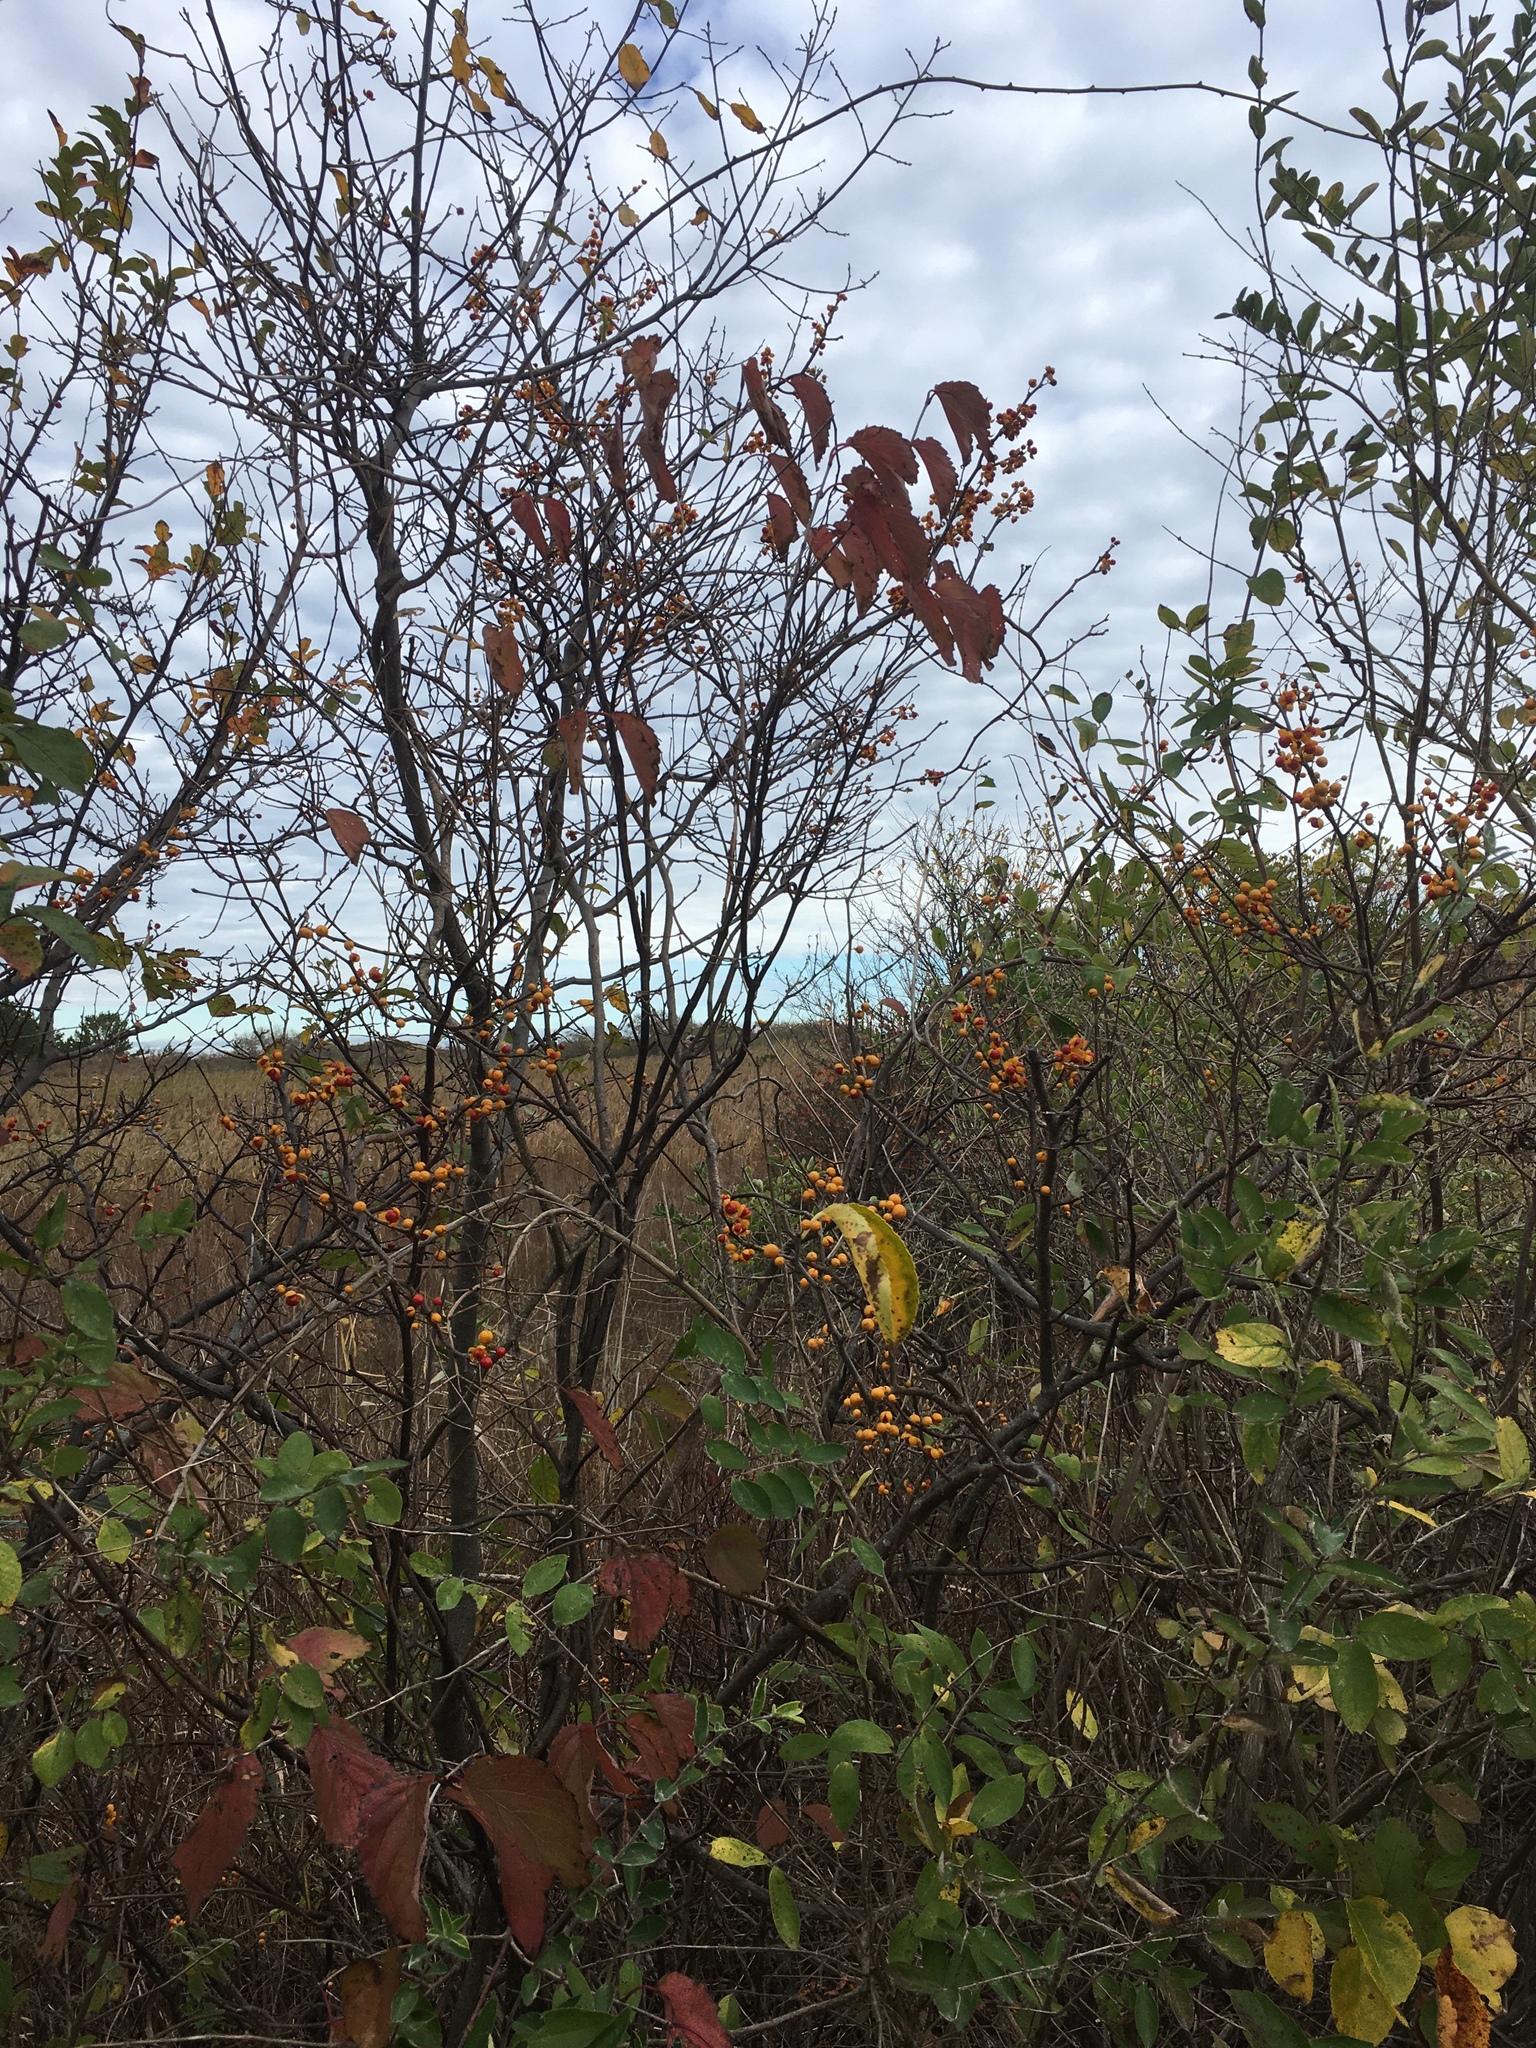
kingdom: Plantae
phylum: Tracheophyta
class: Magnoliopsida
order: Celastrales
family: Celastraceae
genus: Celastrus
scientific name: Celastrus orbiculatus
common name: Oriental bittersweet
